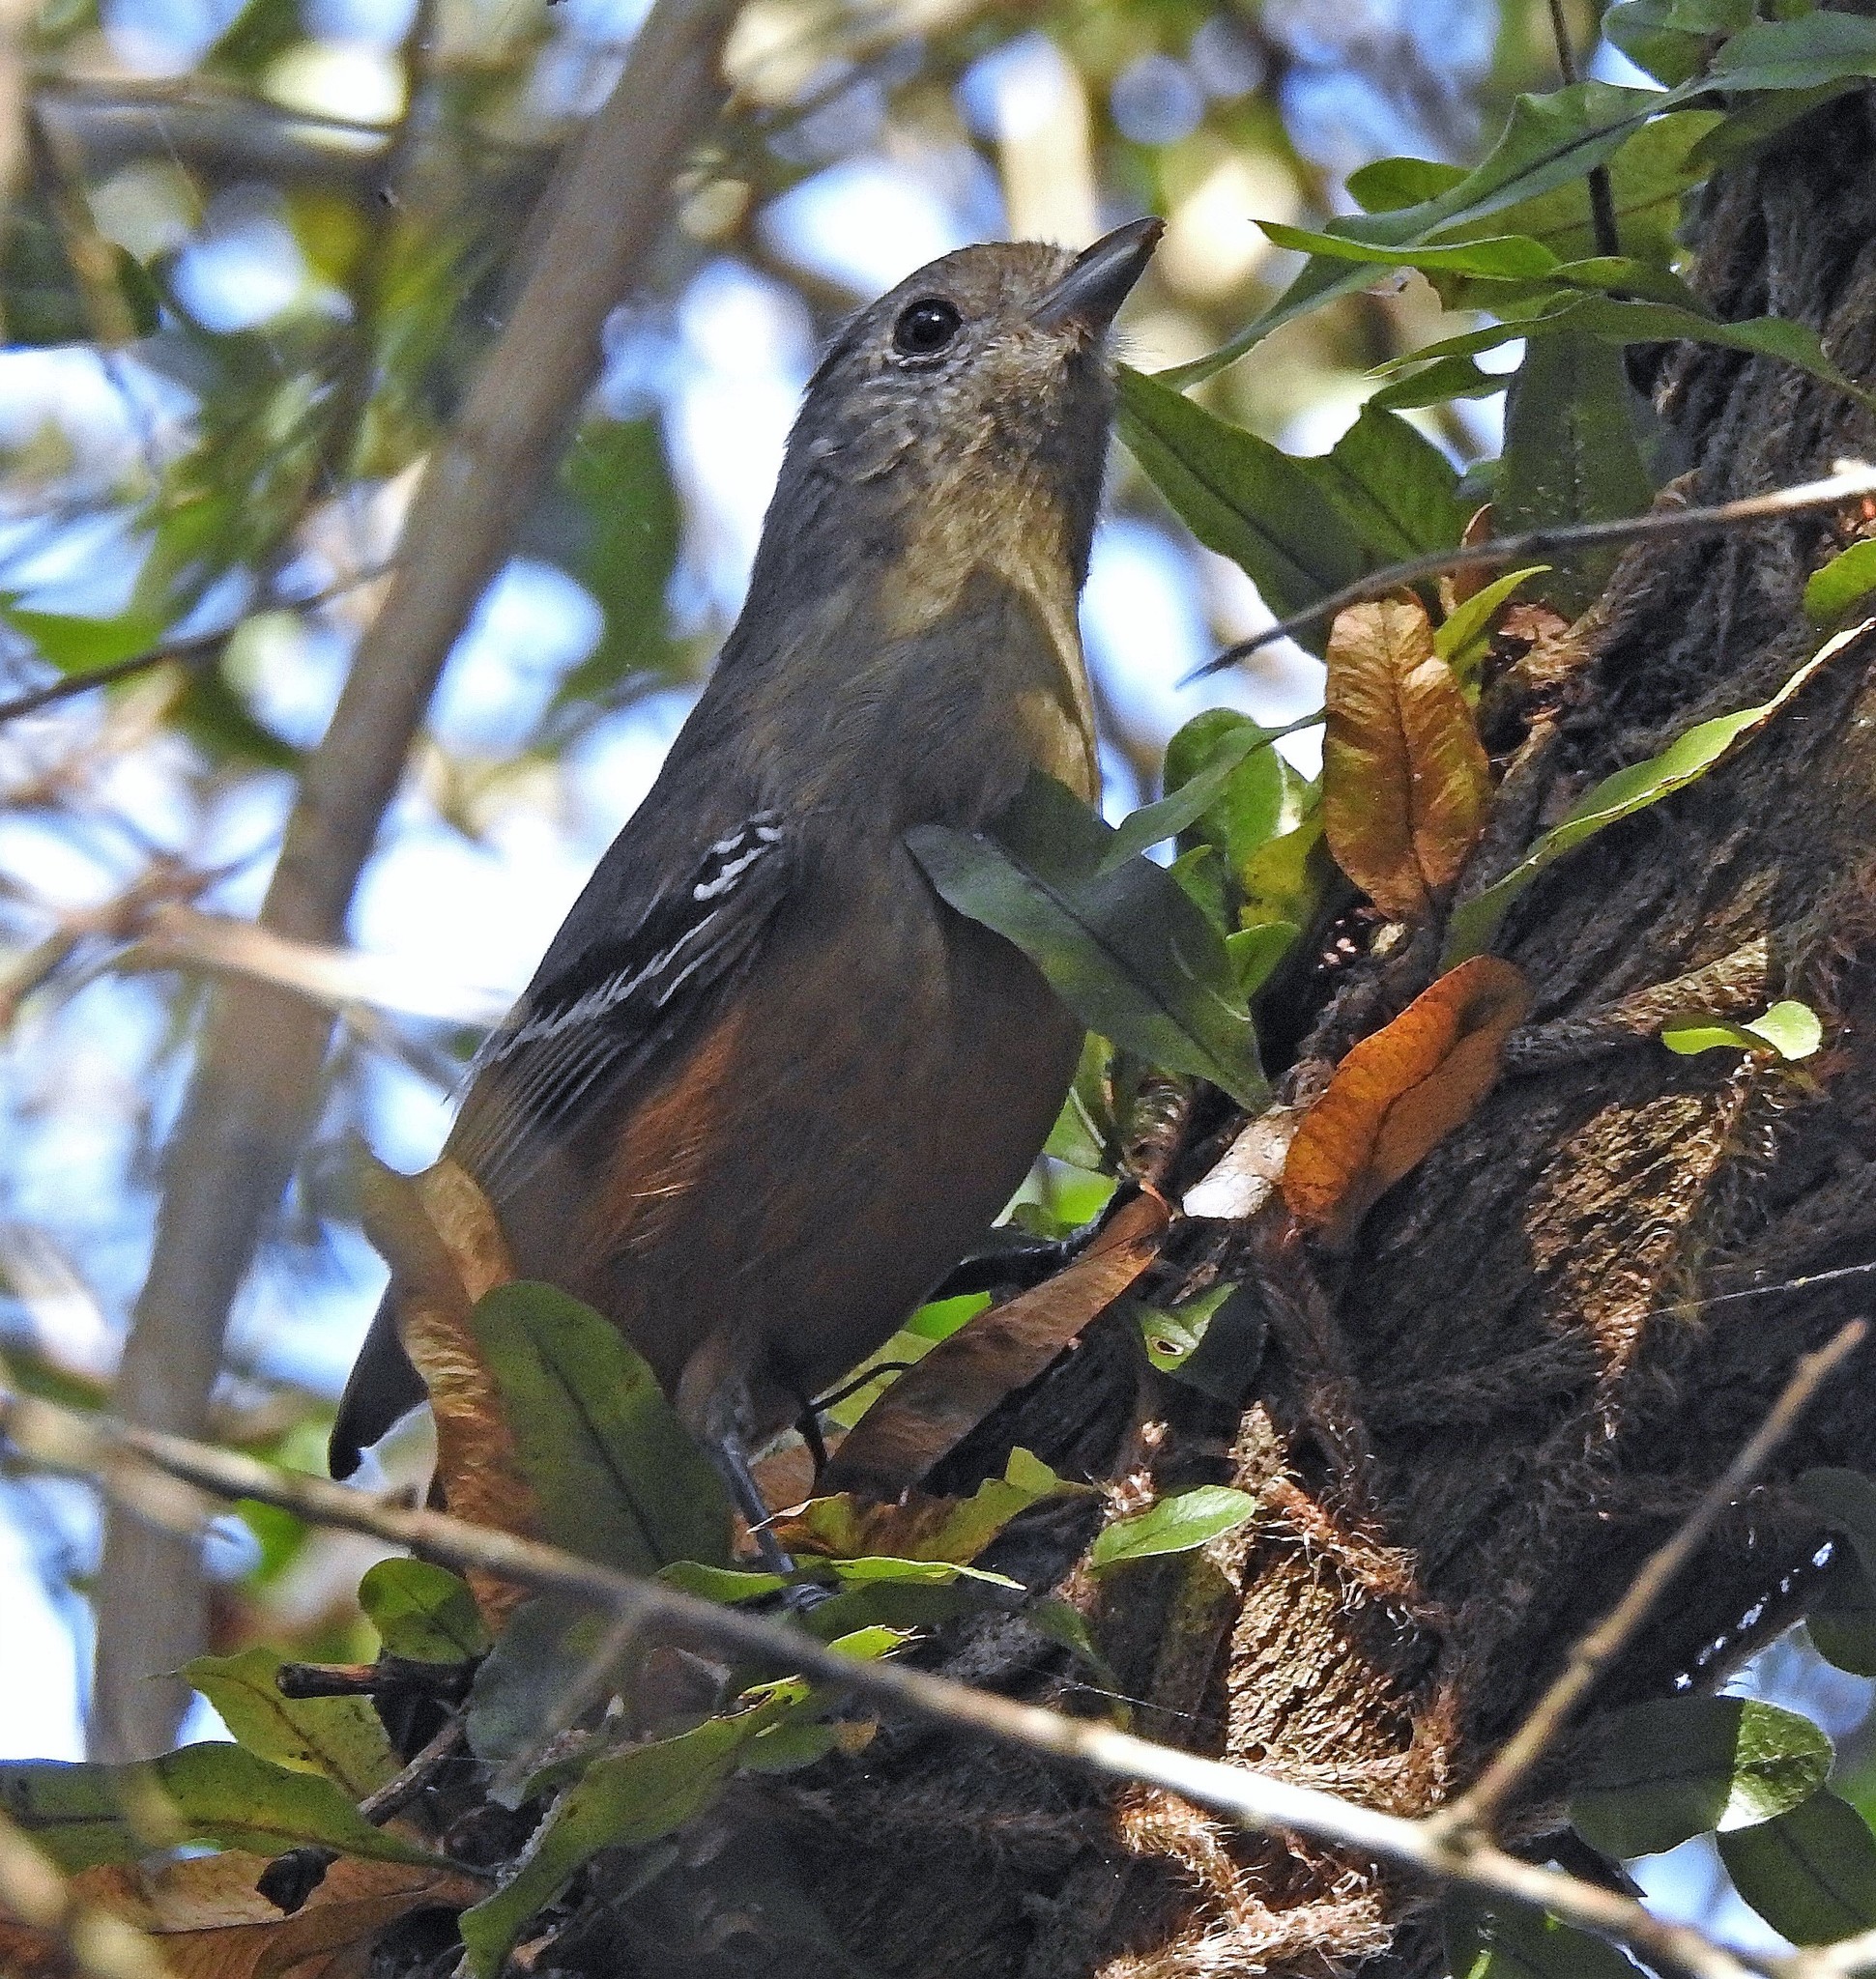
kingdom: Animalia
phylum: Chordata
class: Aves
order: Passeriformes
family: Thamnophilidae
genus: Thamnophilus
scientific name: Thamnophilus caerulescens
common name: Variable antshrike
